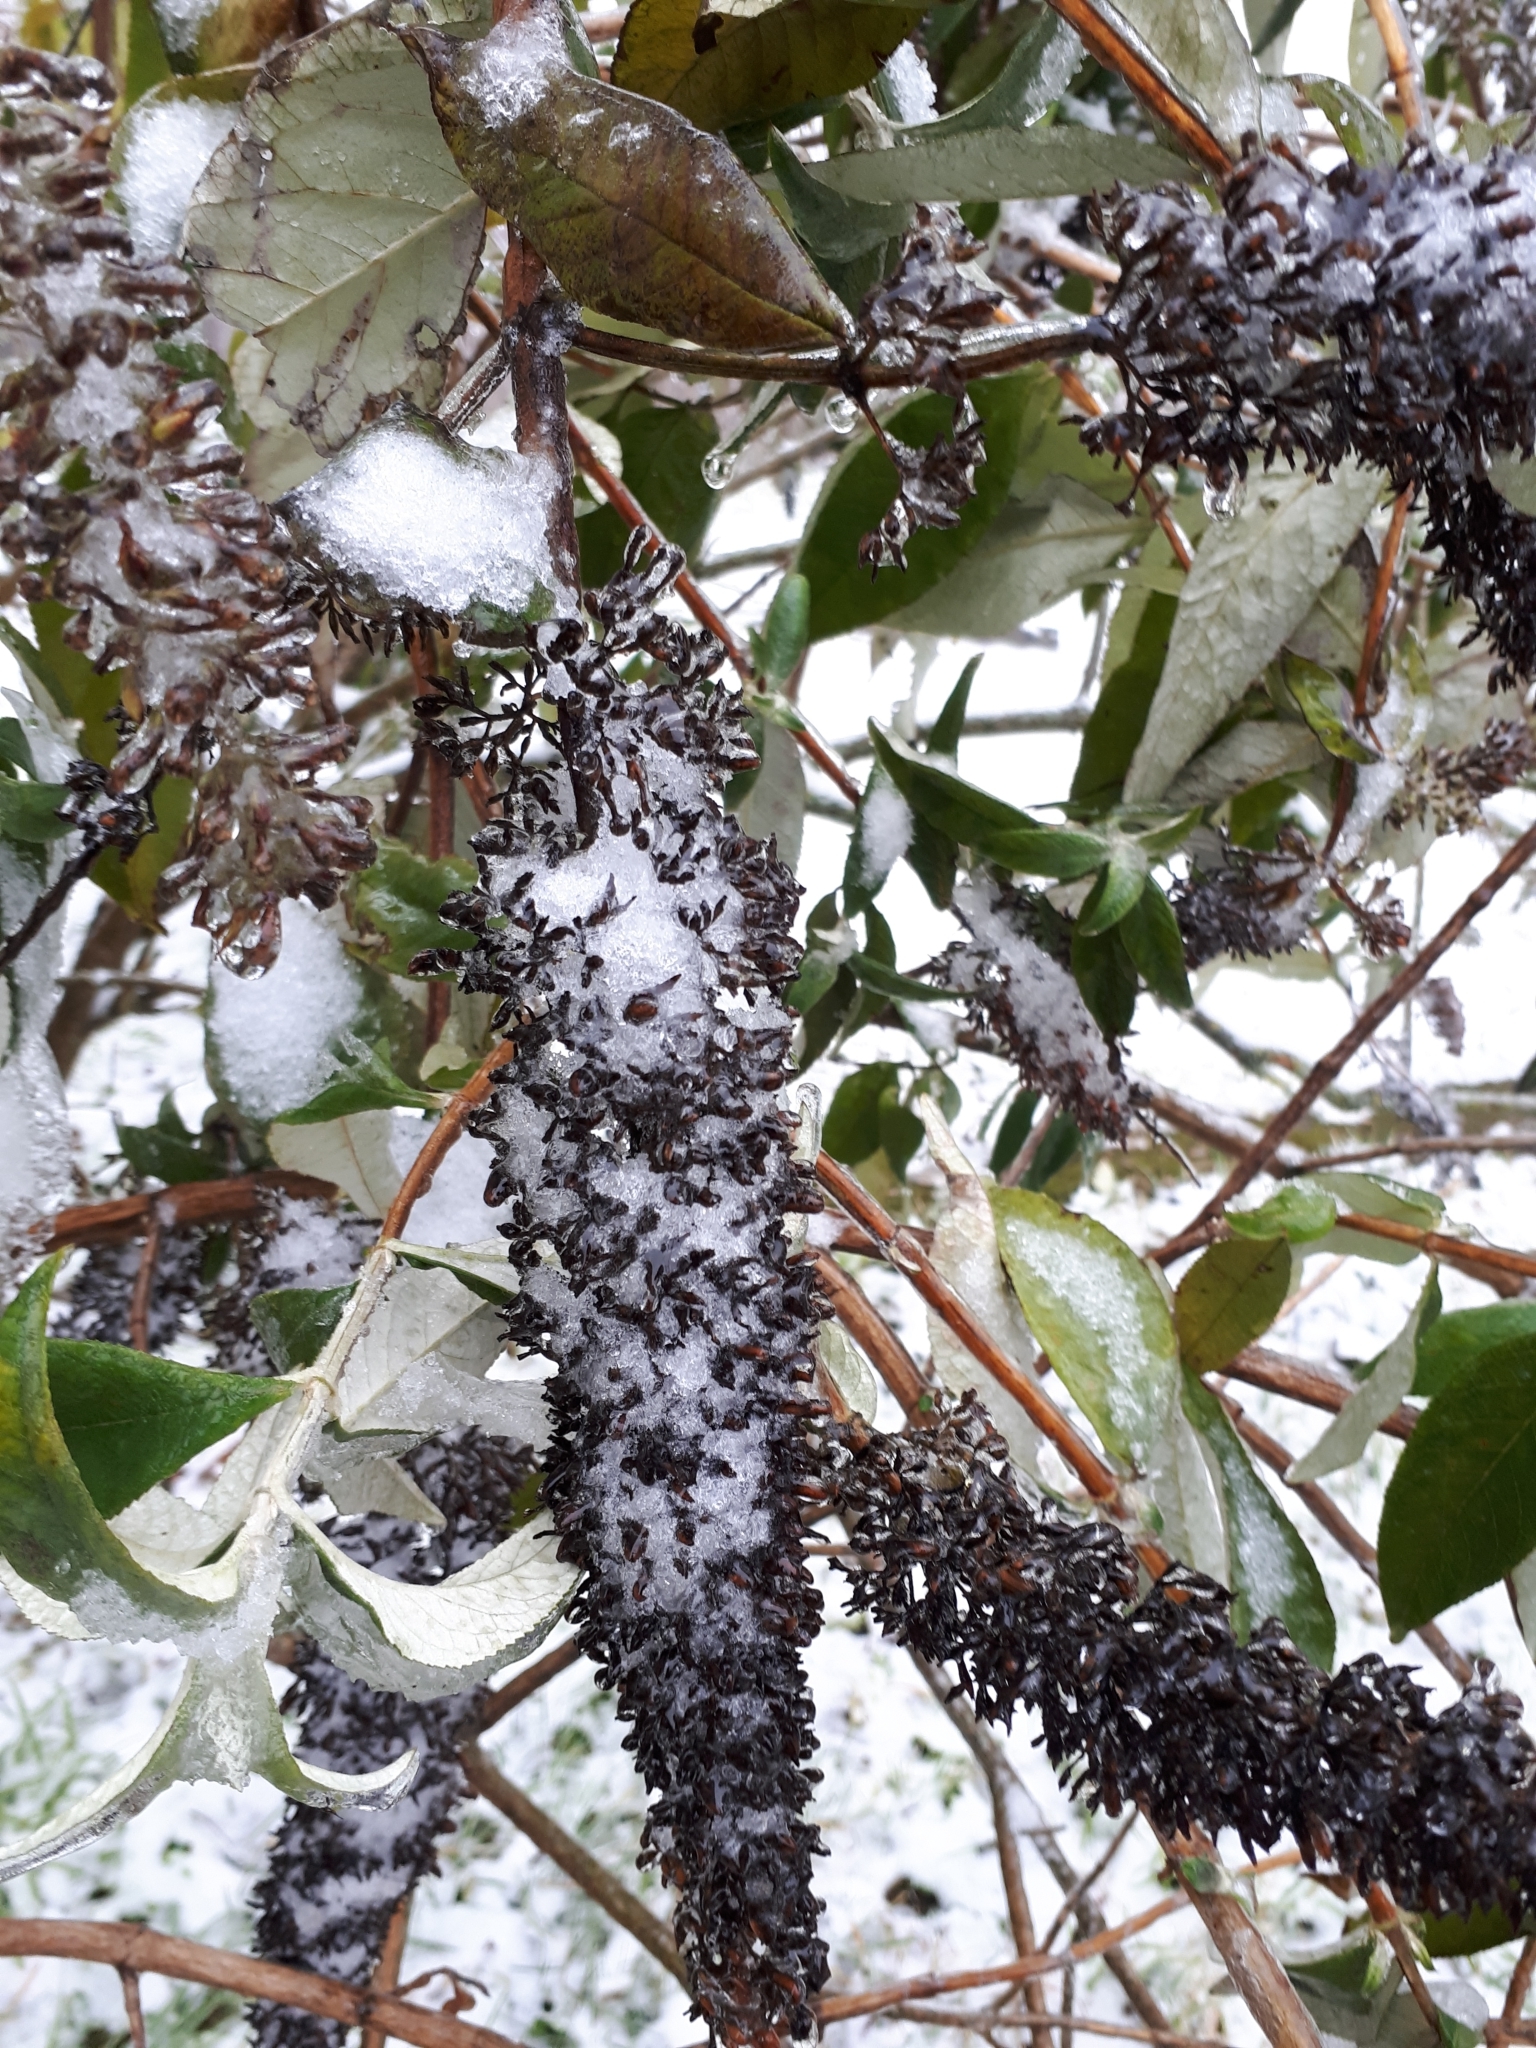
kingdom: Plantae
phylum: Tracheophyta
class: Magnoliopsida
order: Lamiales
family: Scrophulariaceae
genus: Buddleja
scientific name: Buddleja davidii
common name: Butterfly-bush
